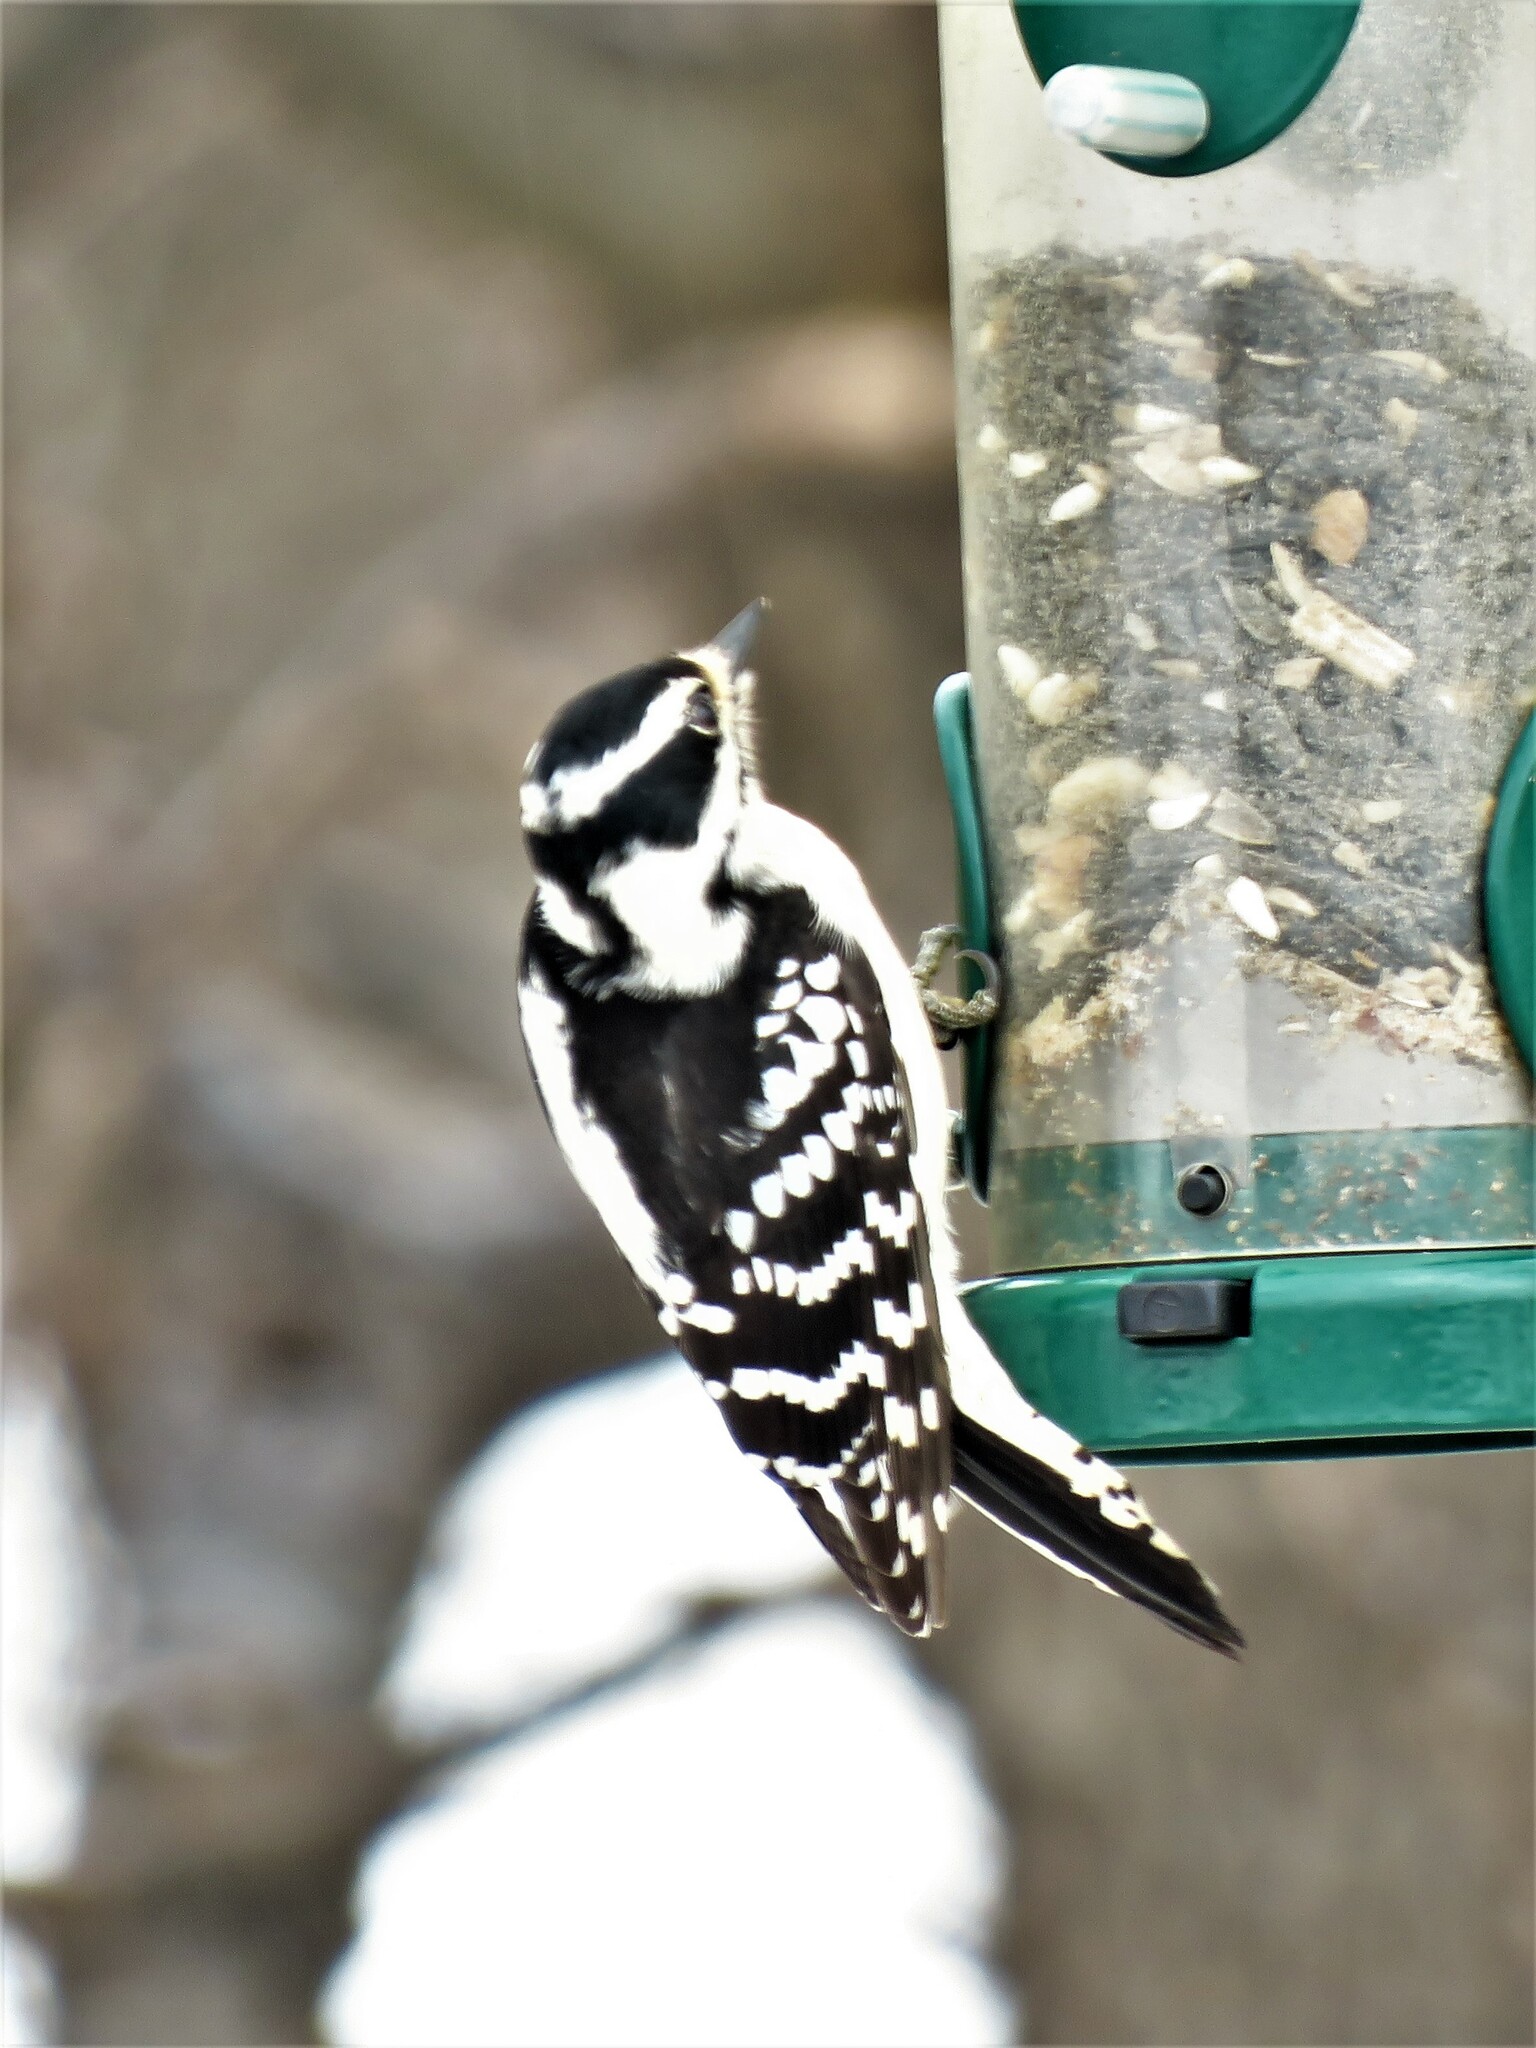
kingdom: Animalia
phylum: Chordata
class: Aves
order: Piciformes
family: Picidae
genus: Dryobates
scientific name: Dryobates pubescens
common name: Downy woodpecker
